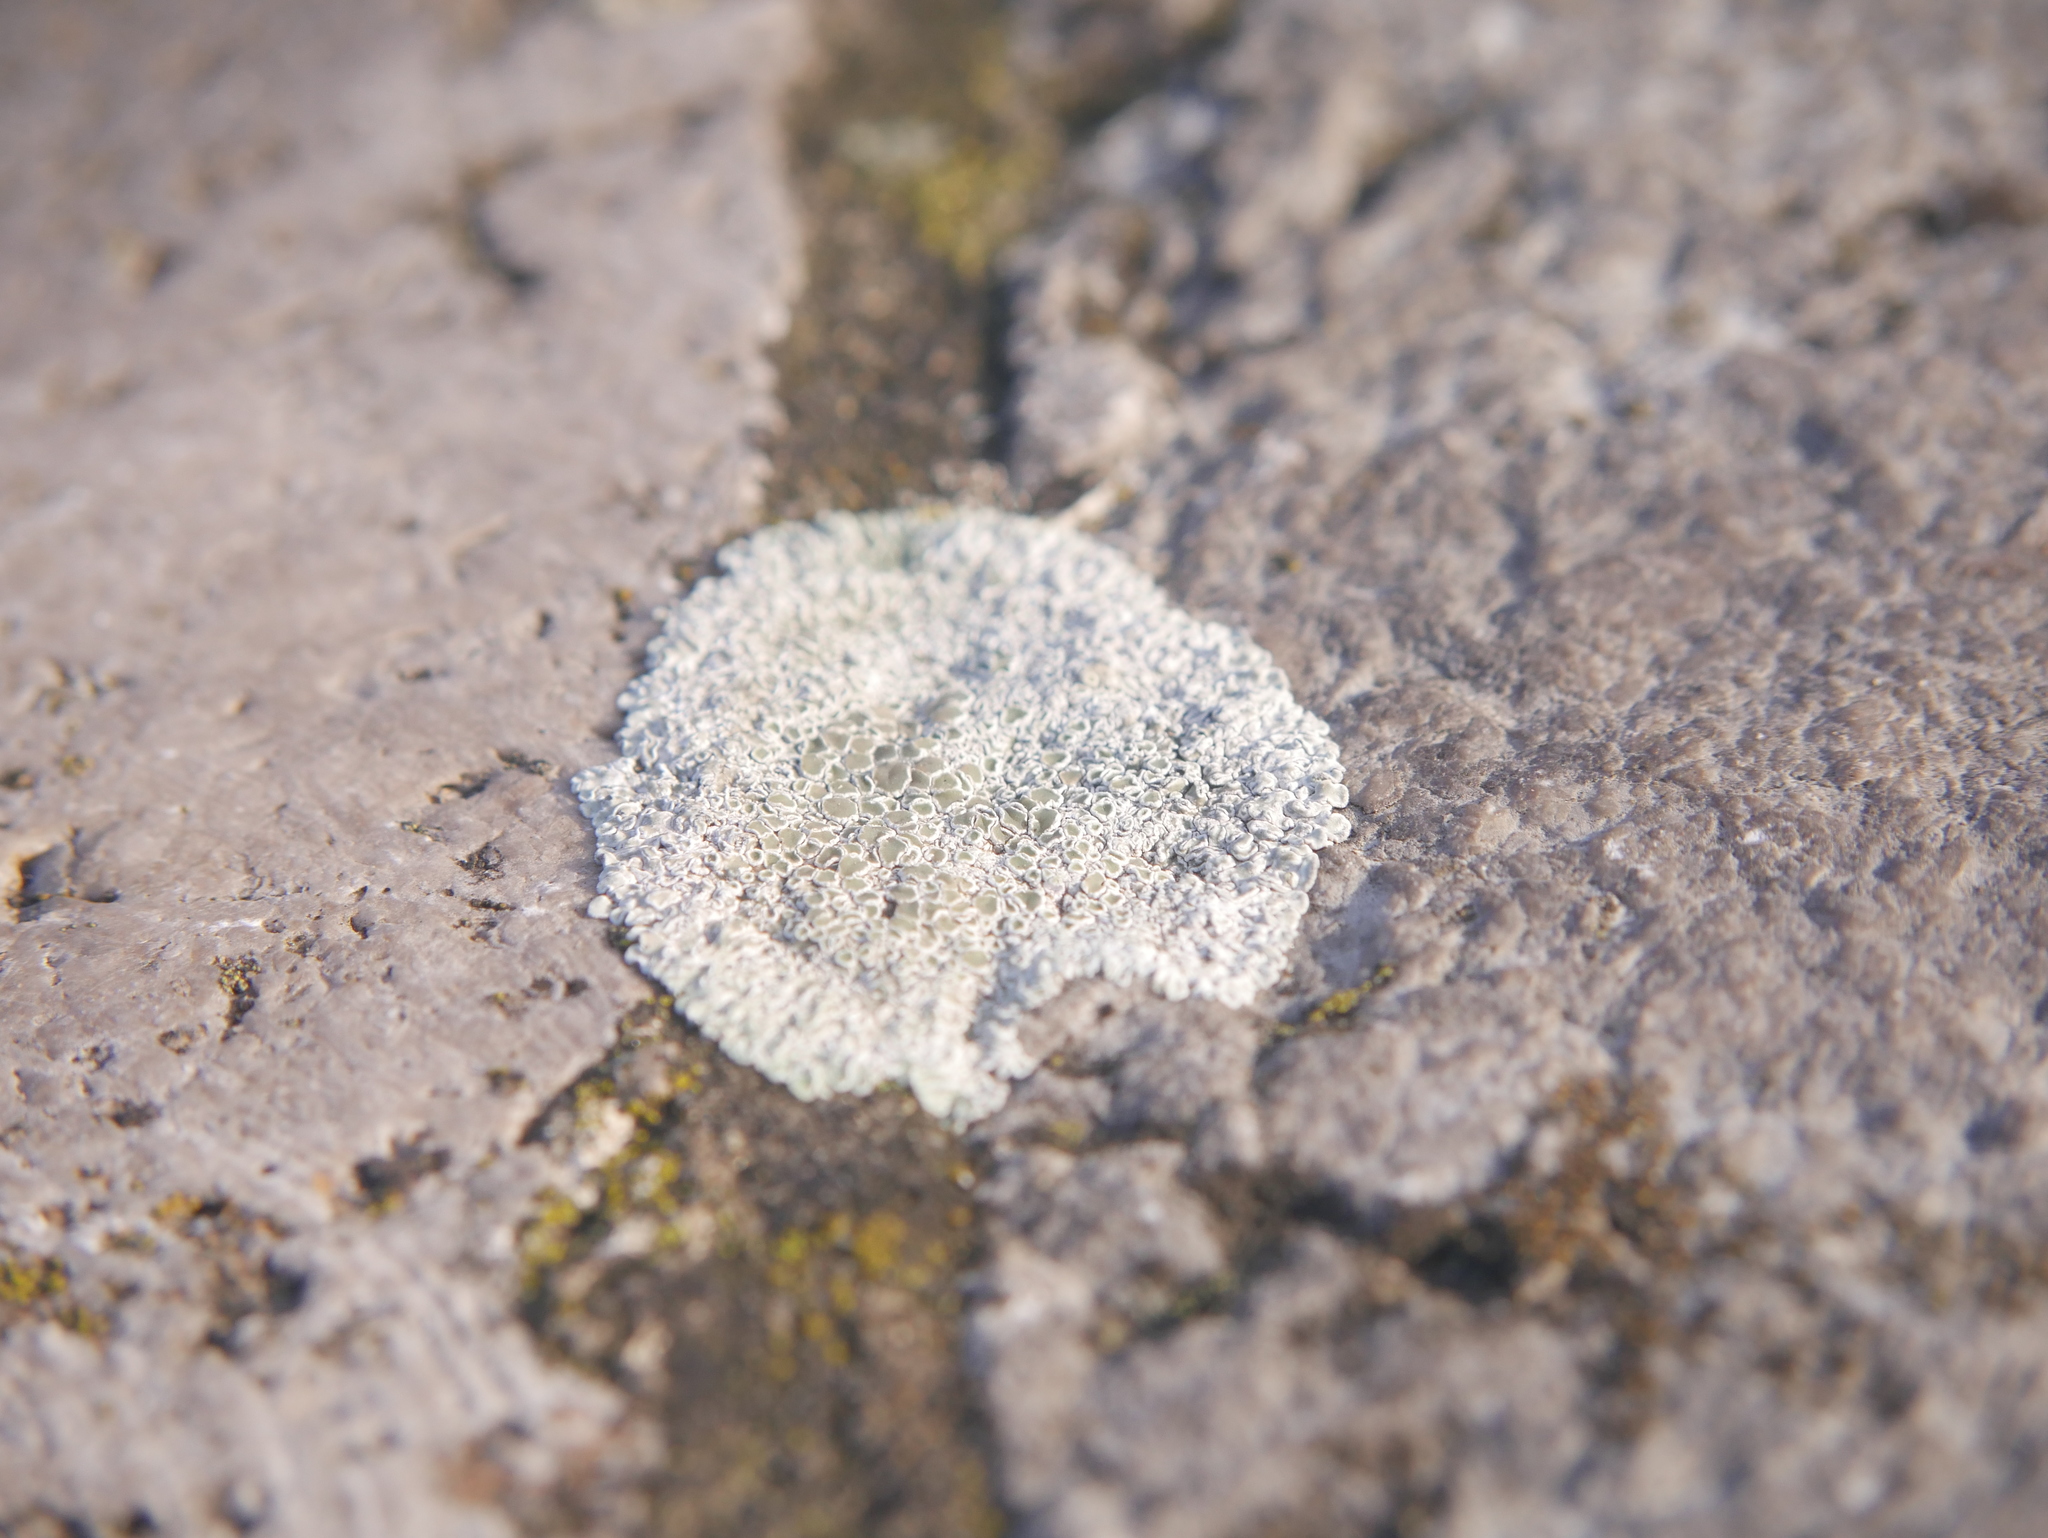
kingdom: Fungi
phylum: Ascomycota
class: Lecanoromycetes
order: Lecanorales
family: Lecanoraceae
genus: Protoparmeliopsis
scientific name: Protoparmeliopsis muralis
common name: Stonewall rim lichen
